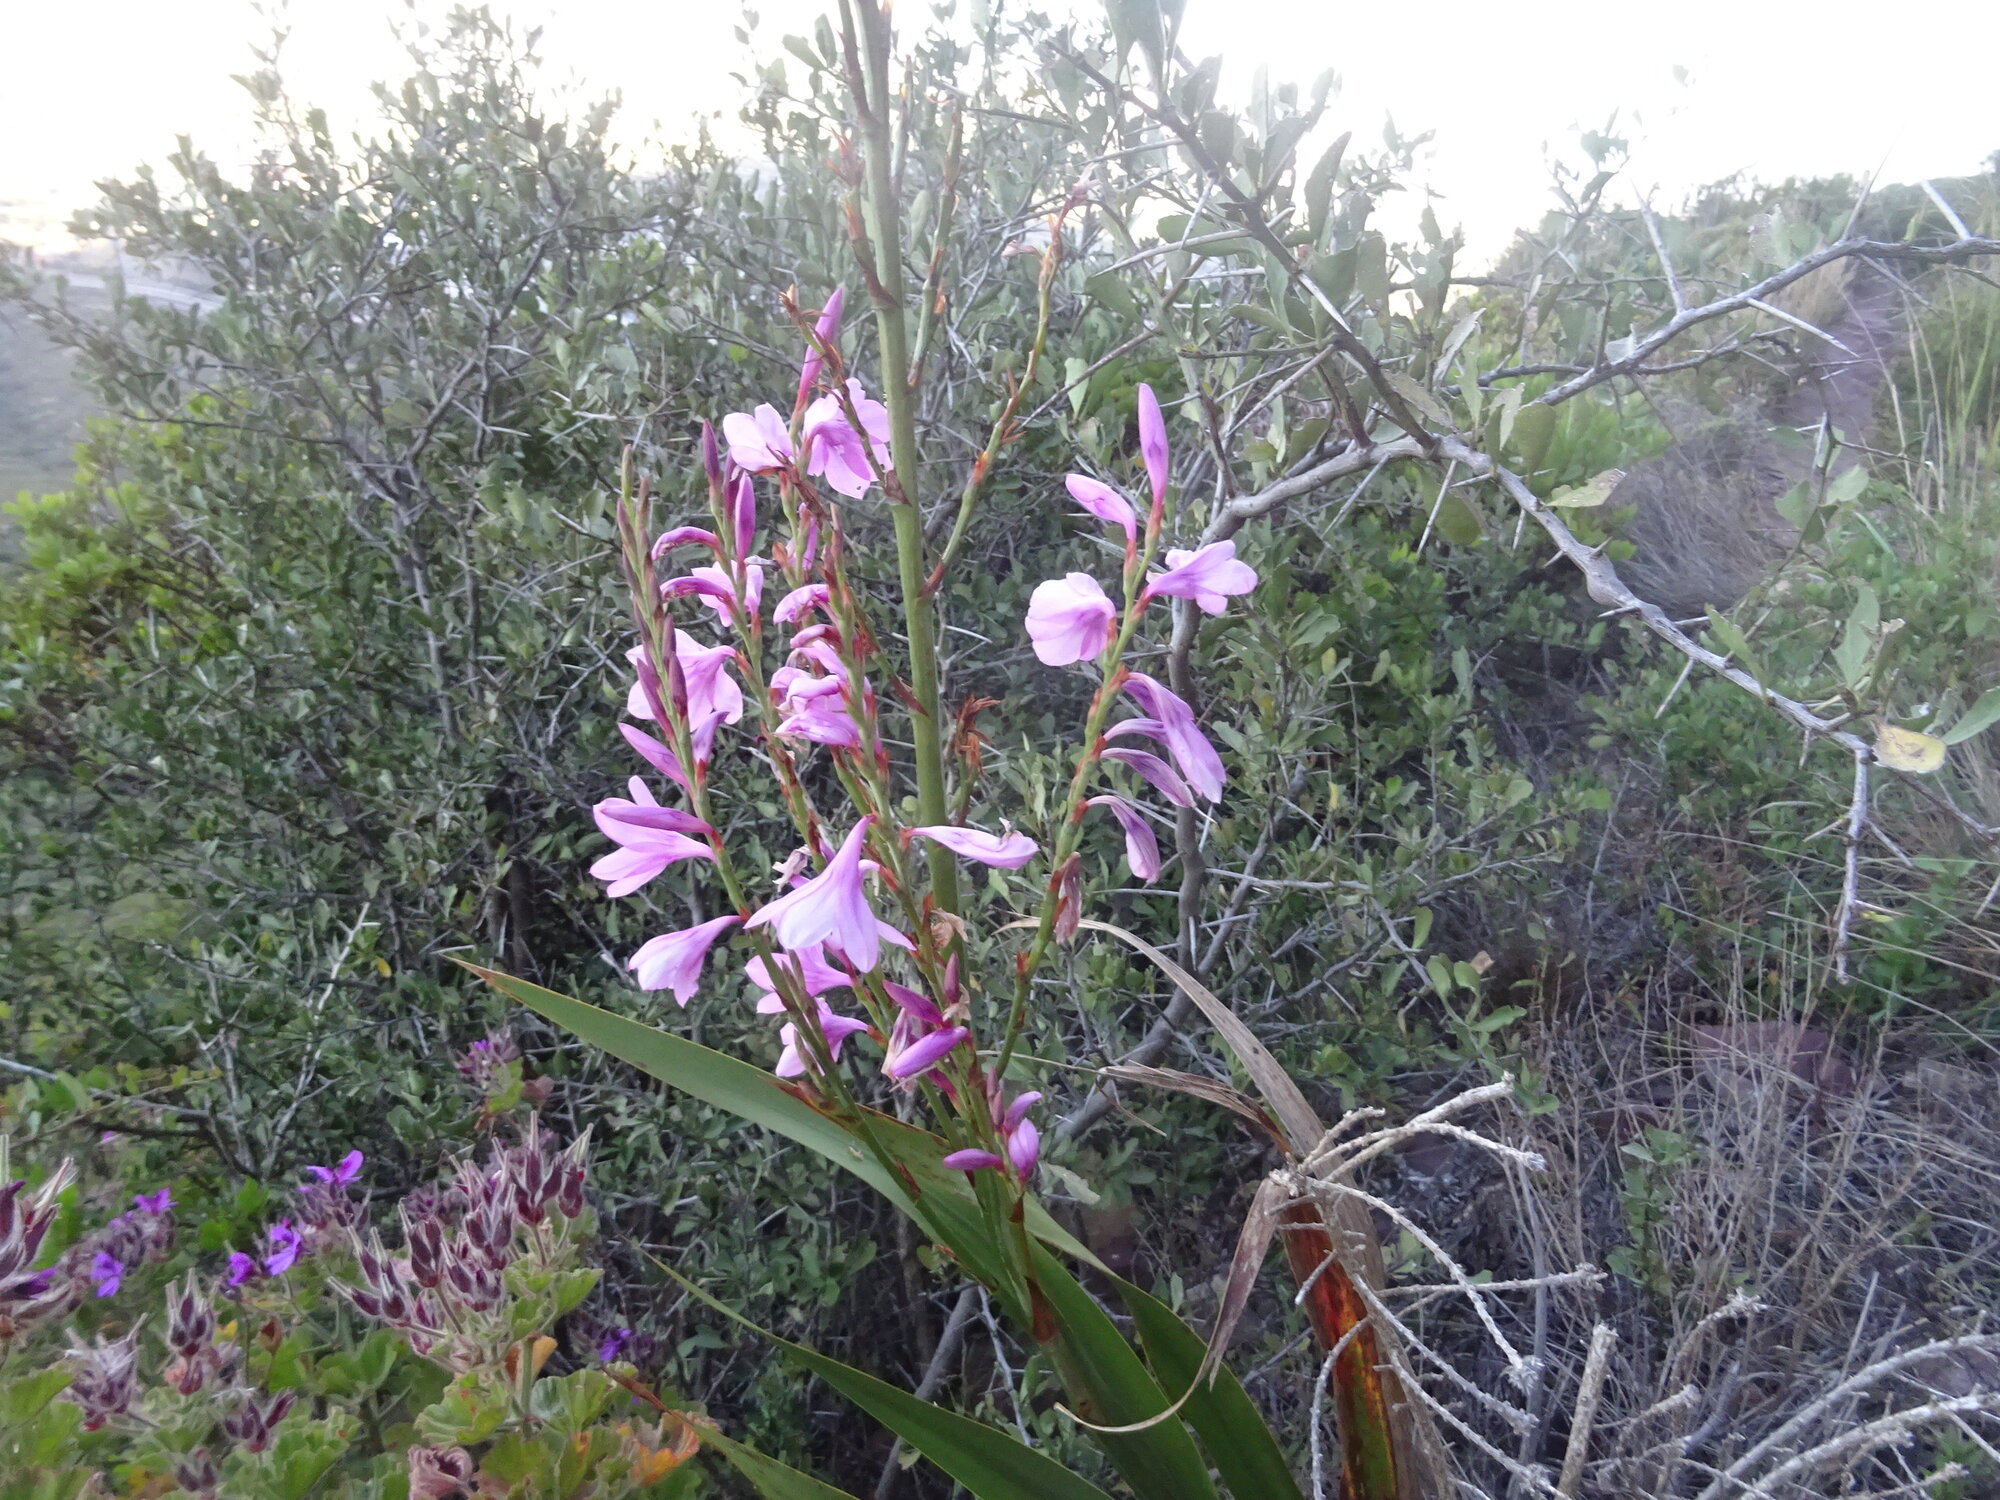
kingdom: Plantae
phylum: Tracheophyta
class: Liliopsida
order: Asparagales
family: Iridaceae
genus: Watsonia
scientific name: Watsonia borbonica
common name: Bugle-lily
